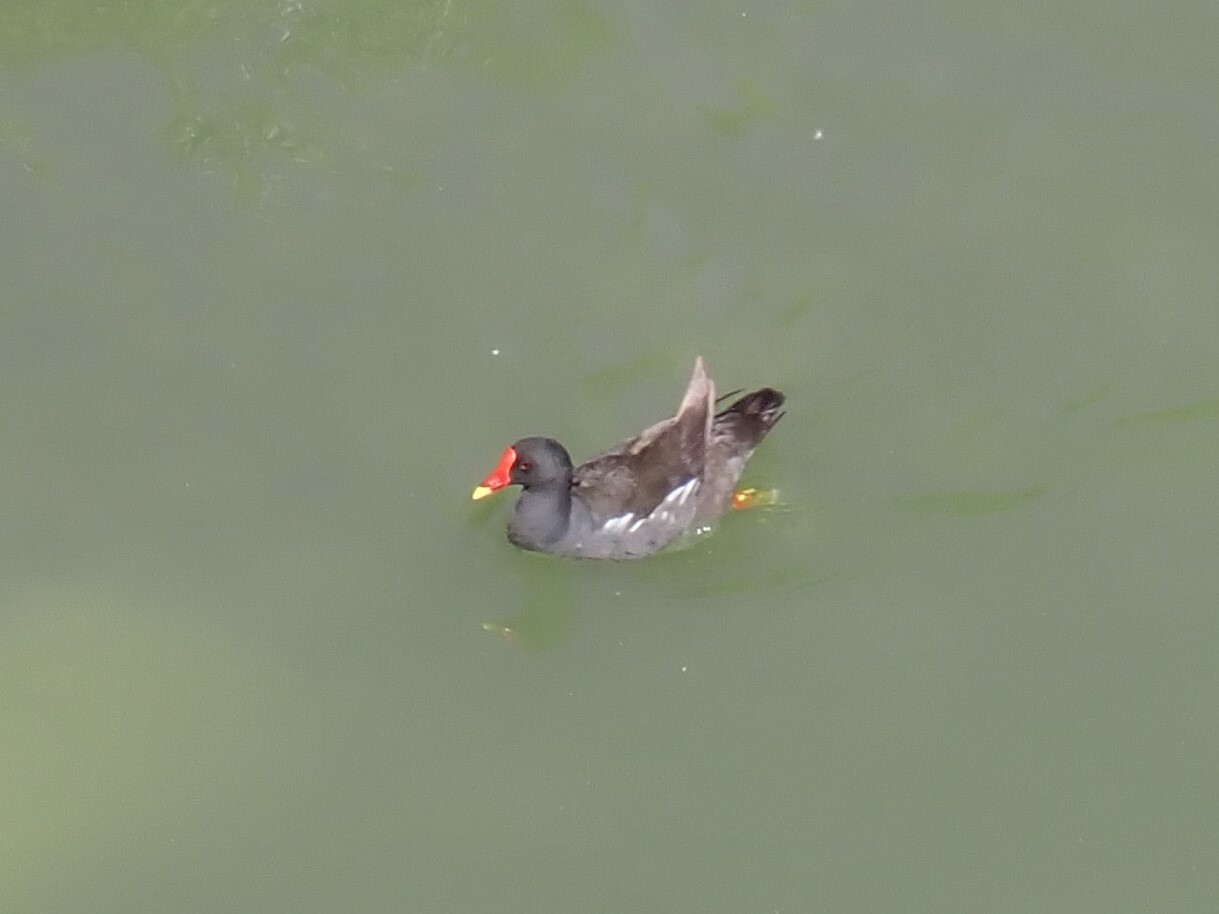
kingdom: Animalia
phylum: Chordata
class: Aves
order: Gruiformes
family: Rallidae
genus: Gallinula
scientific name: Gallinula chloropus
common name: Common moorhen
